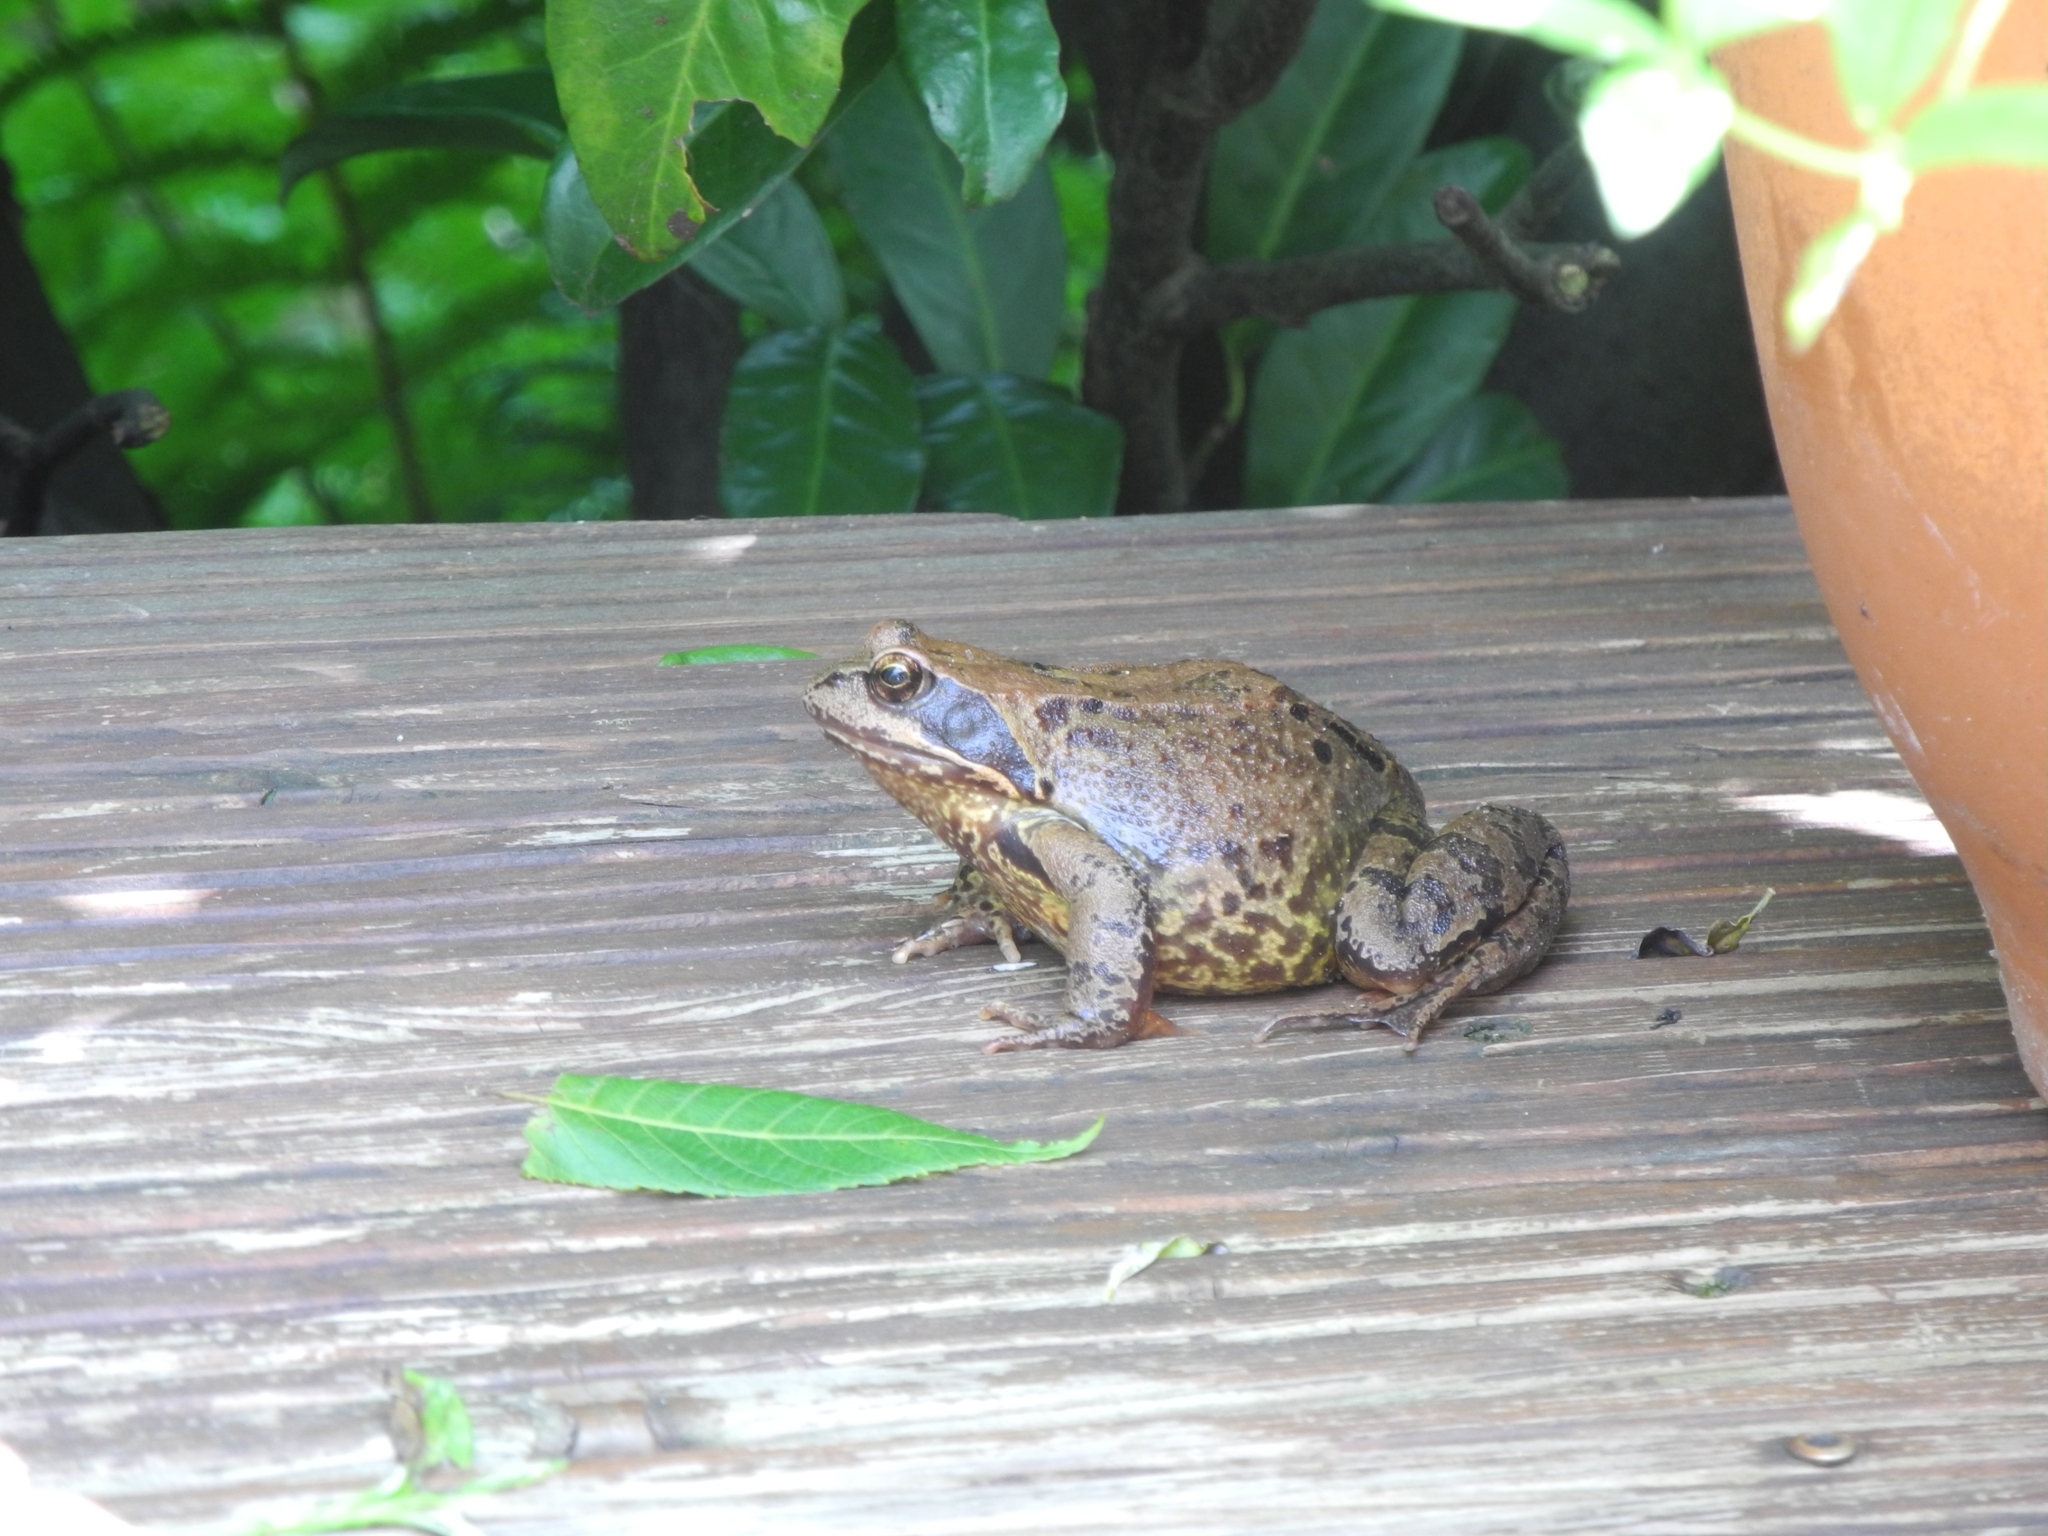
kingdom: Animalia
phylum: Chordata
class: Amphibia
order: Anura
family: Ranidae
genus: Rana
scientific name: Rana temporaria
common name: Common frog
